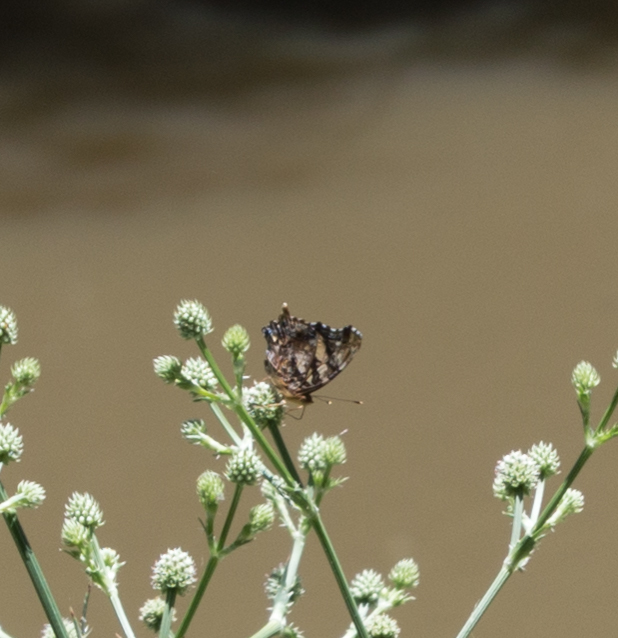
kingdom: Animalia
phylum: Arthropoda
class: Insecta
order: Lepidoptera
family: Nymphalidae
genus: Hypanartia
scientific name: Hypanartia bella
